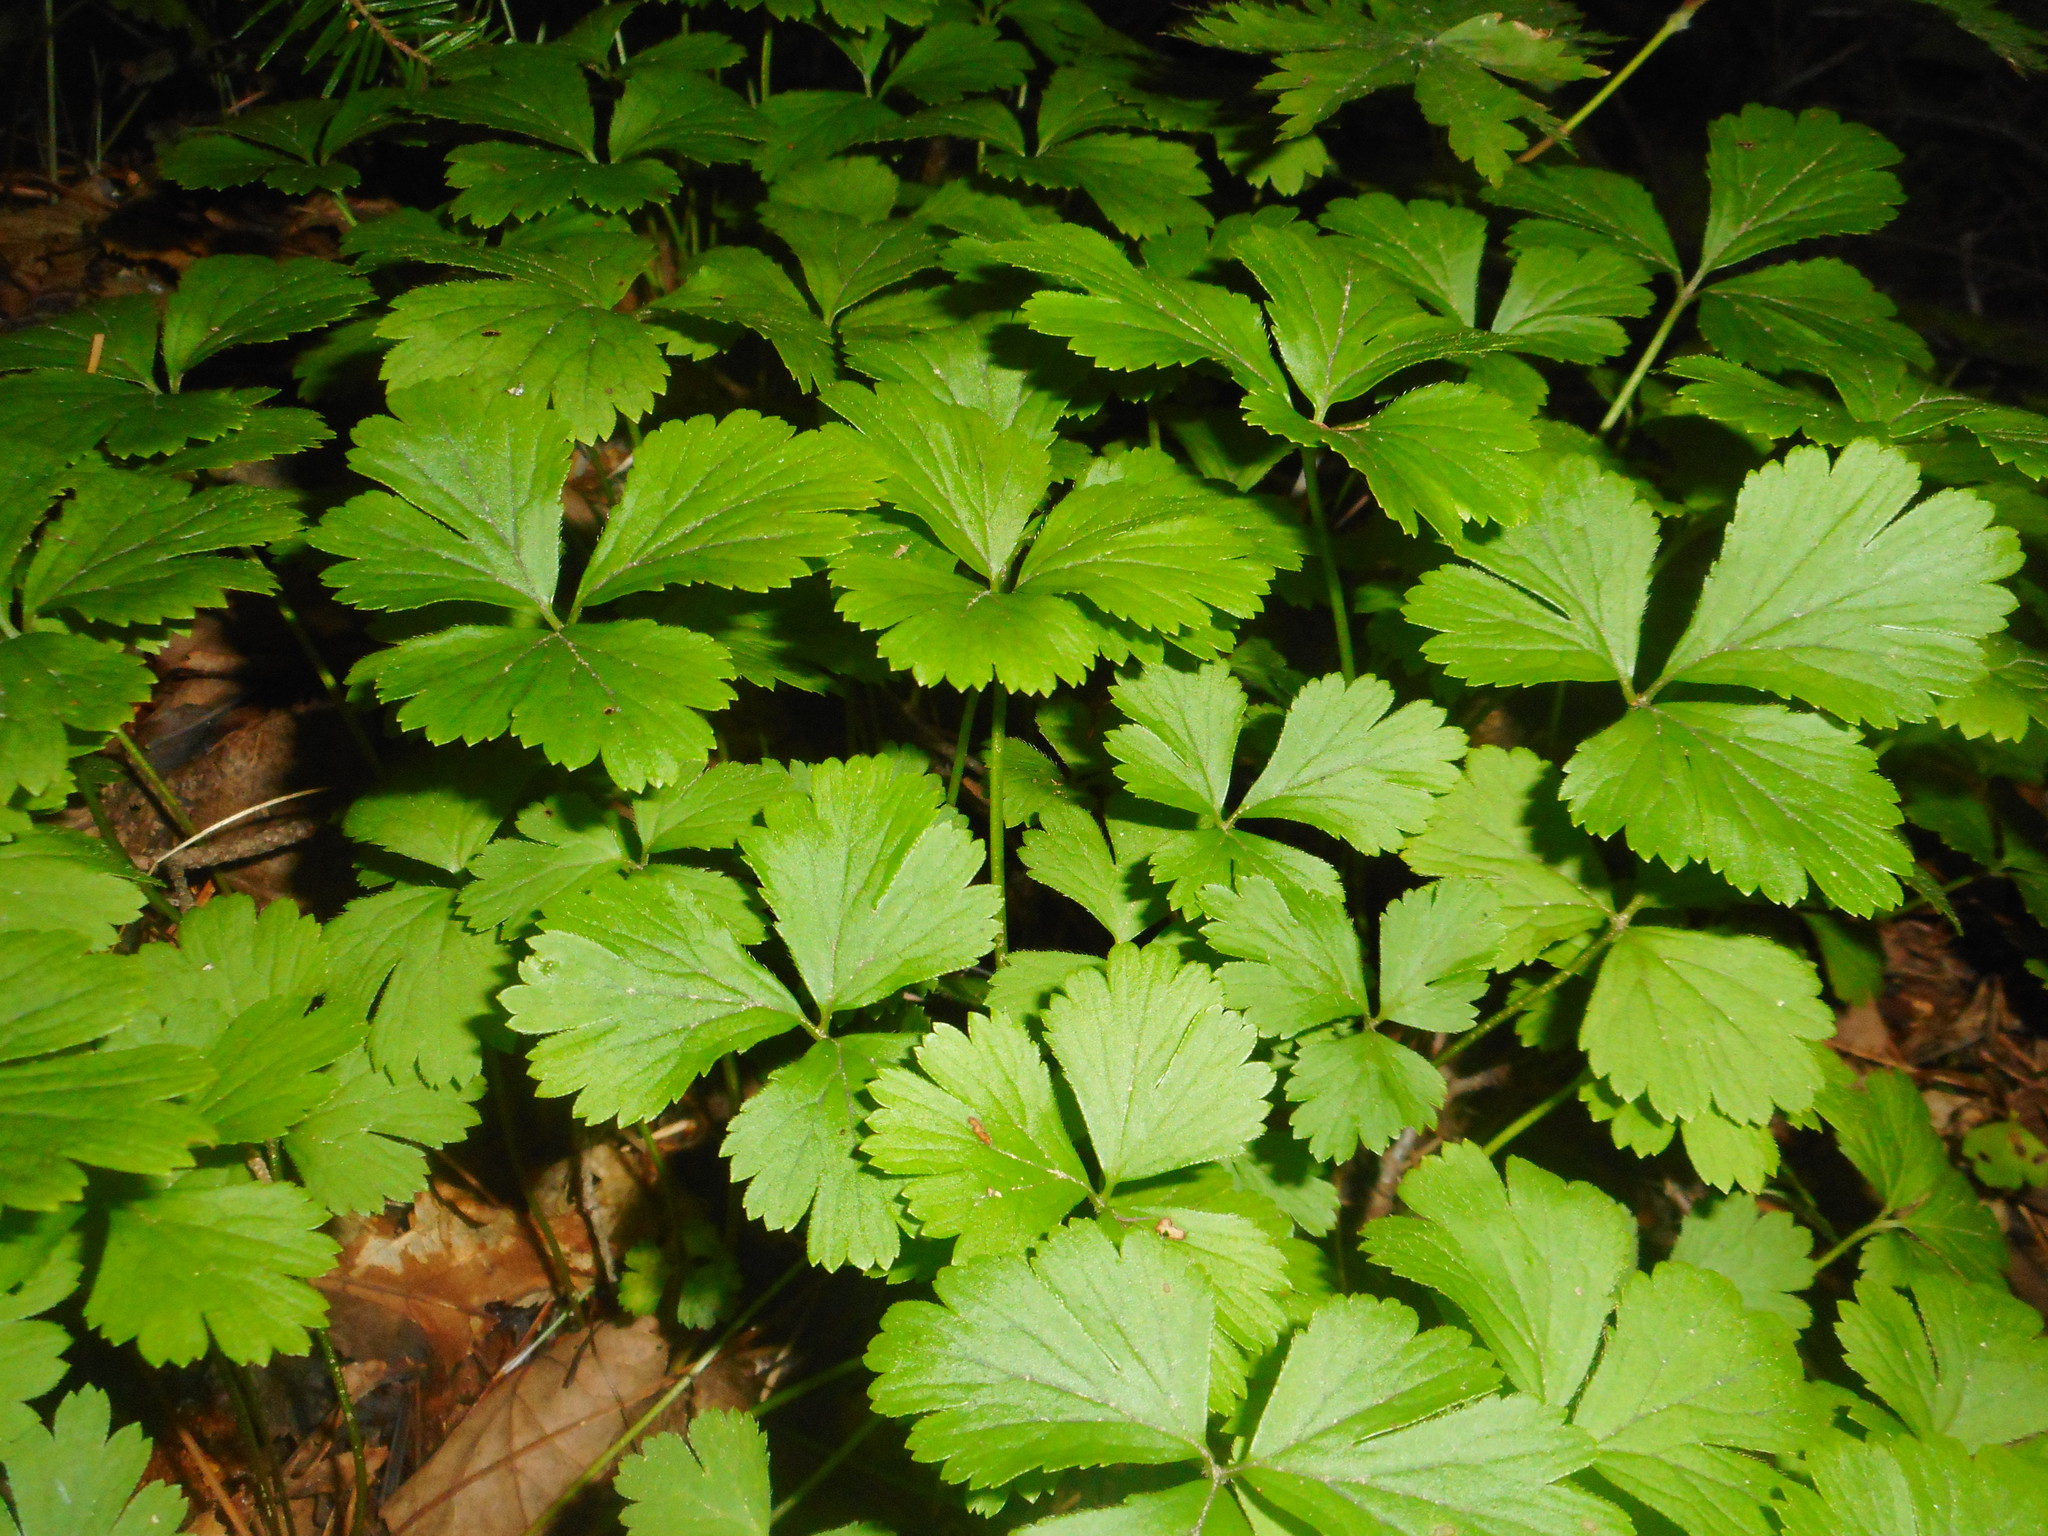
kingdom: Plantae
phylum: Tracheophyta
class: Magnoliopsida
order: Rosales
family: Rosaceae
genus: Geum
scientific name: Geum ternatum
